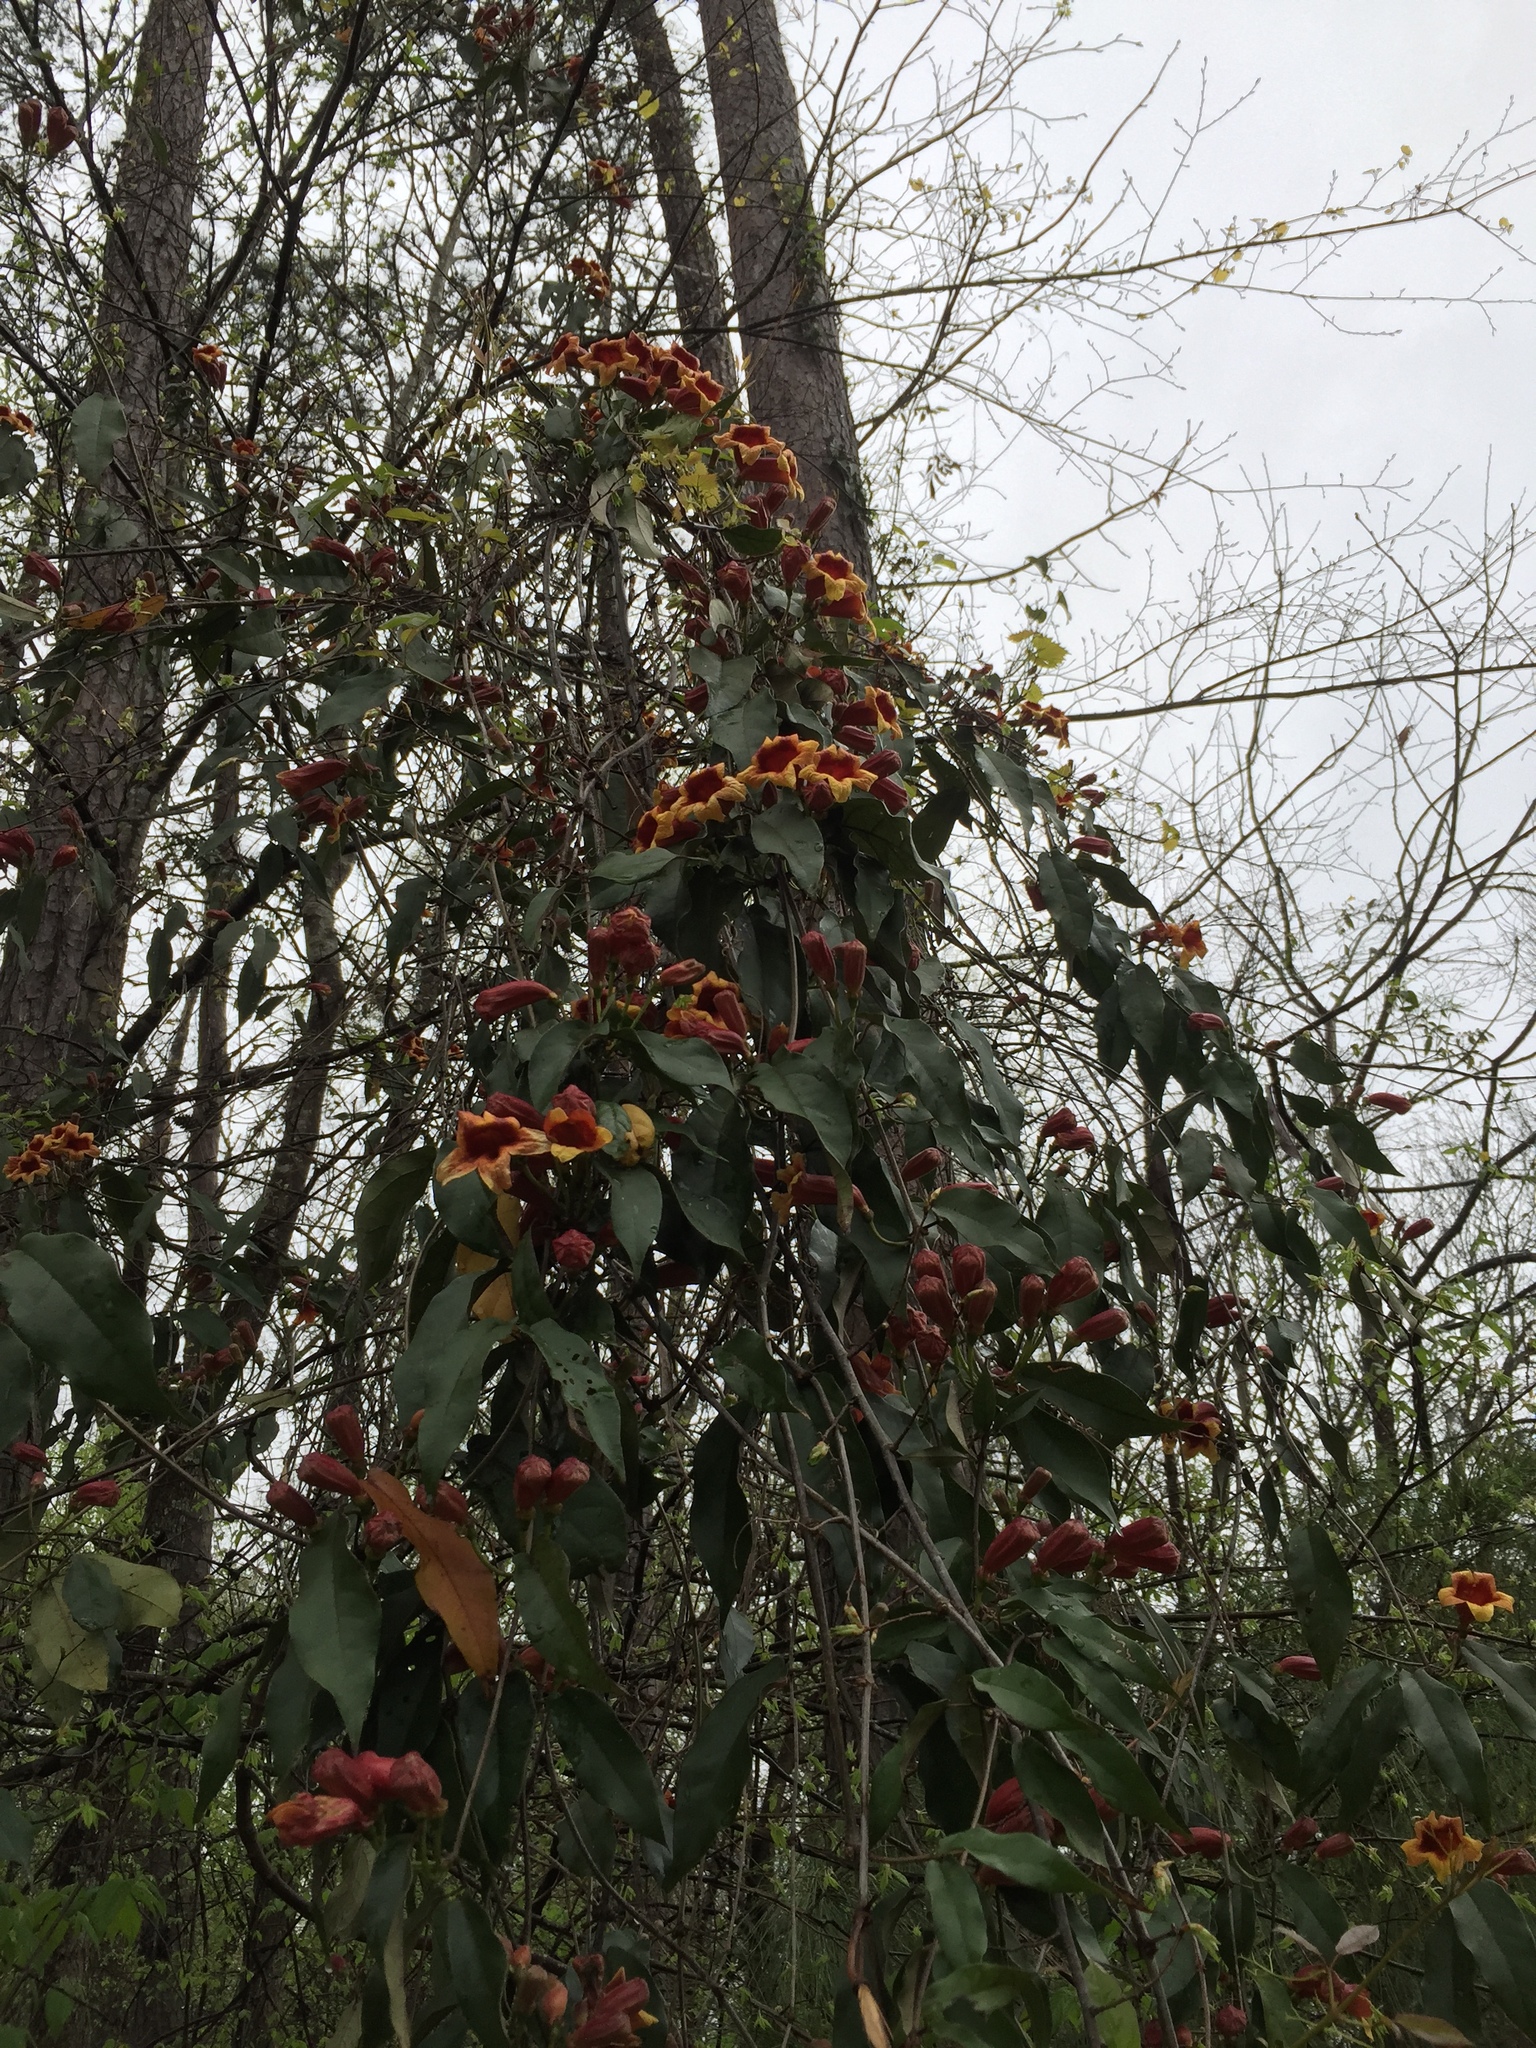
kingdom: Plantae
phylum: Tracheophyta
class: Magnoliopsida
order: Lamiales
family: Bignoniaceae
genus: Bignonia
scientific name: Bignonia capreolata
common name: Crossvine
